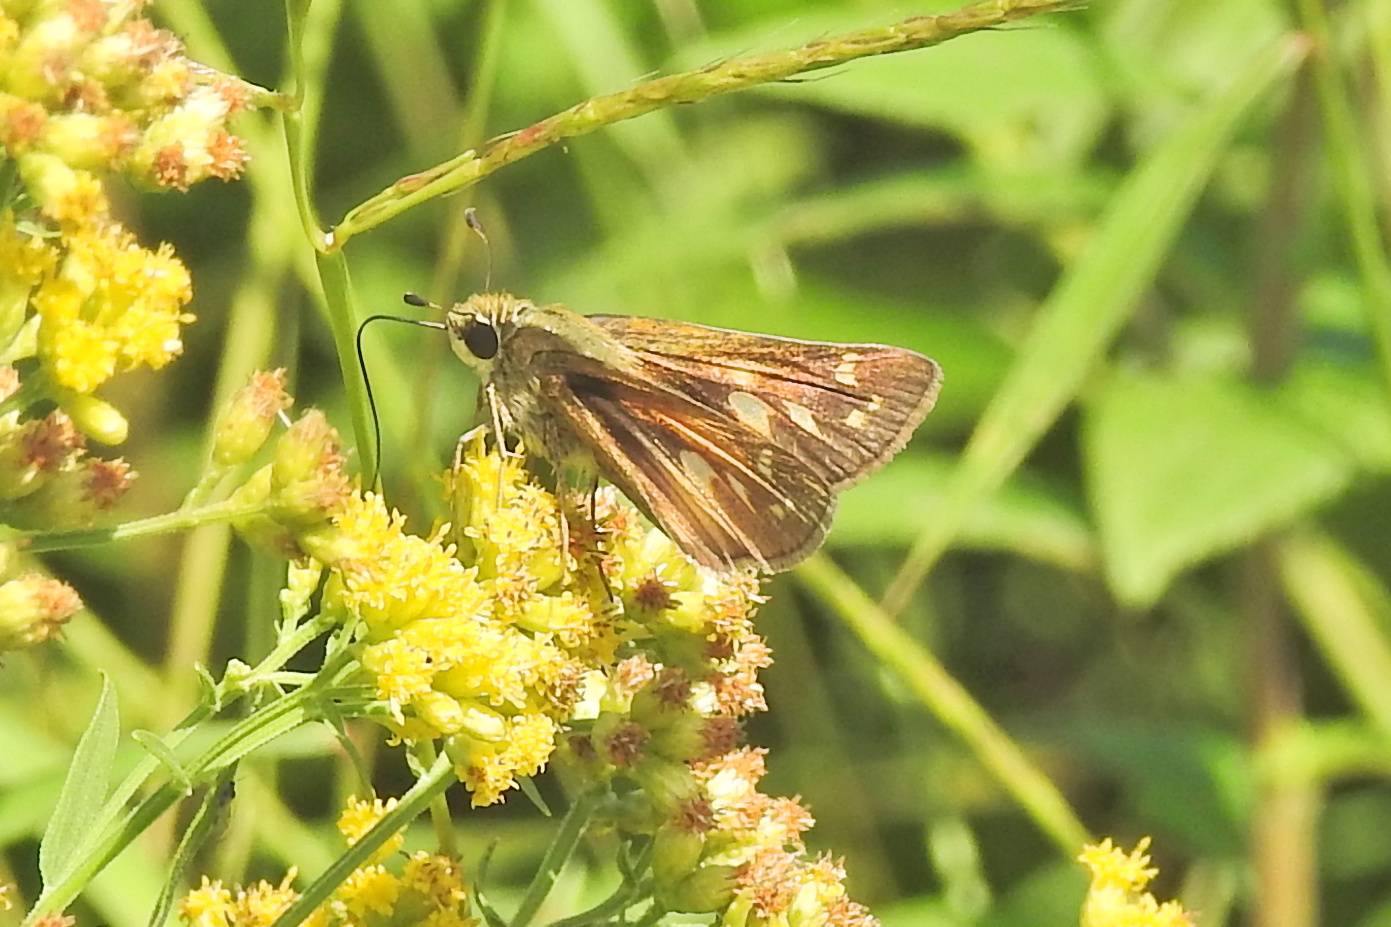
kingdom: Animalia
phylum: Arthropoda
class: Insecta
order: Lepidoptera
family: Hesperiidae
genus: Atalopedes
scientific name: Atalopedes
